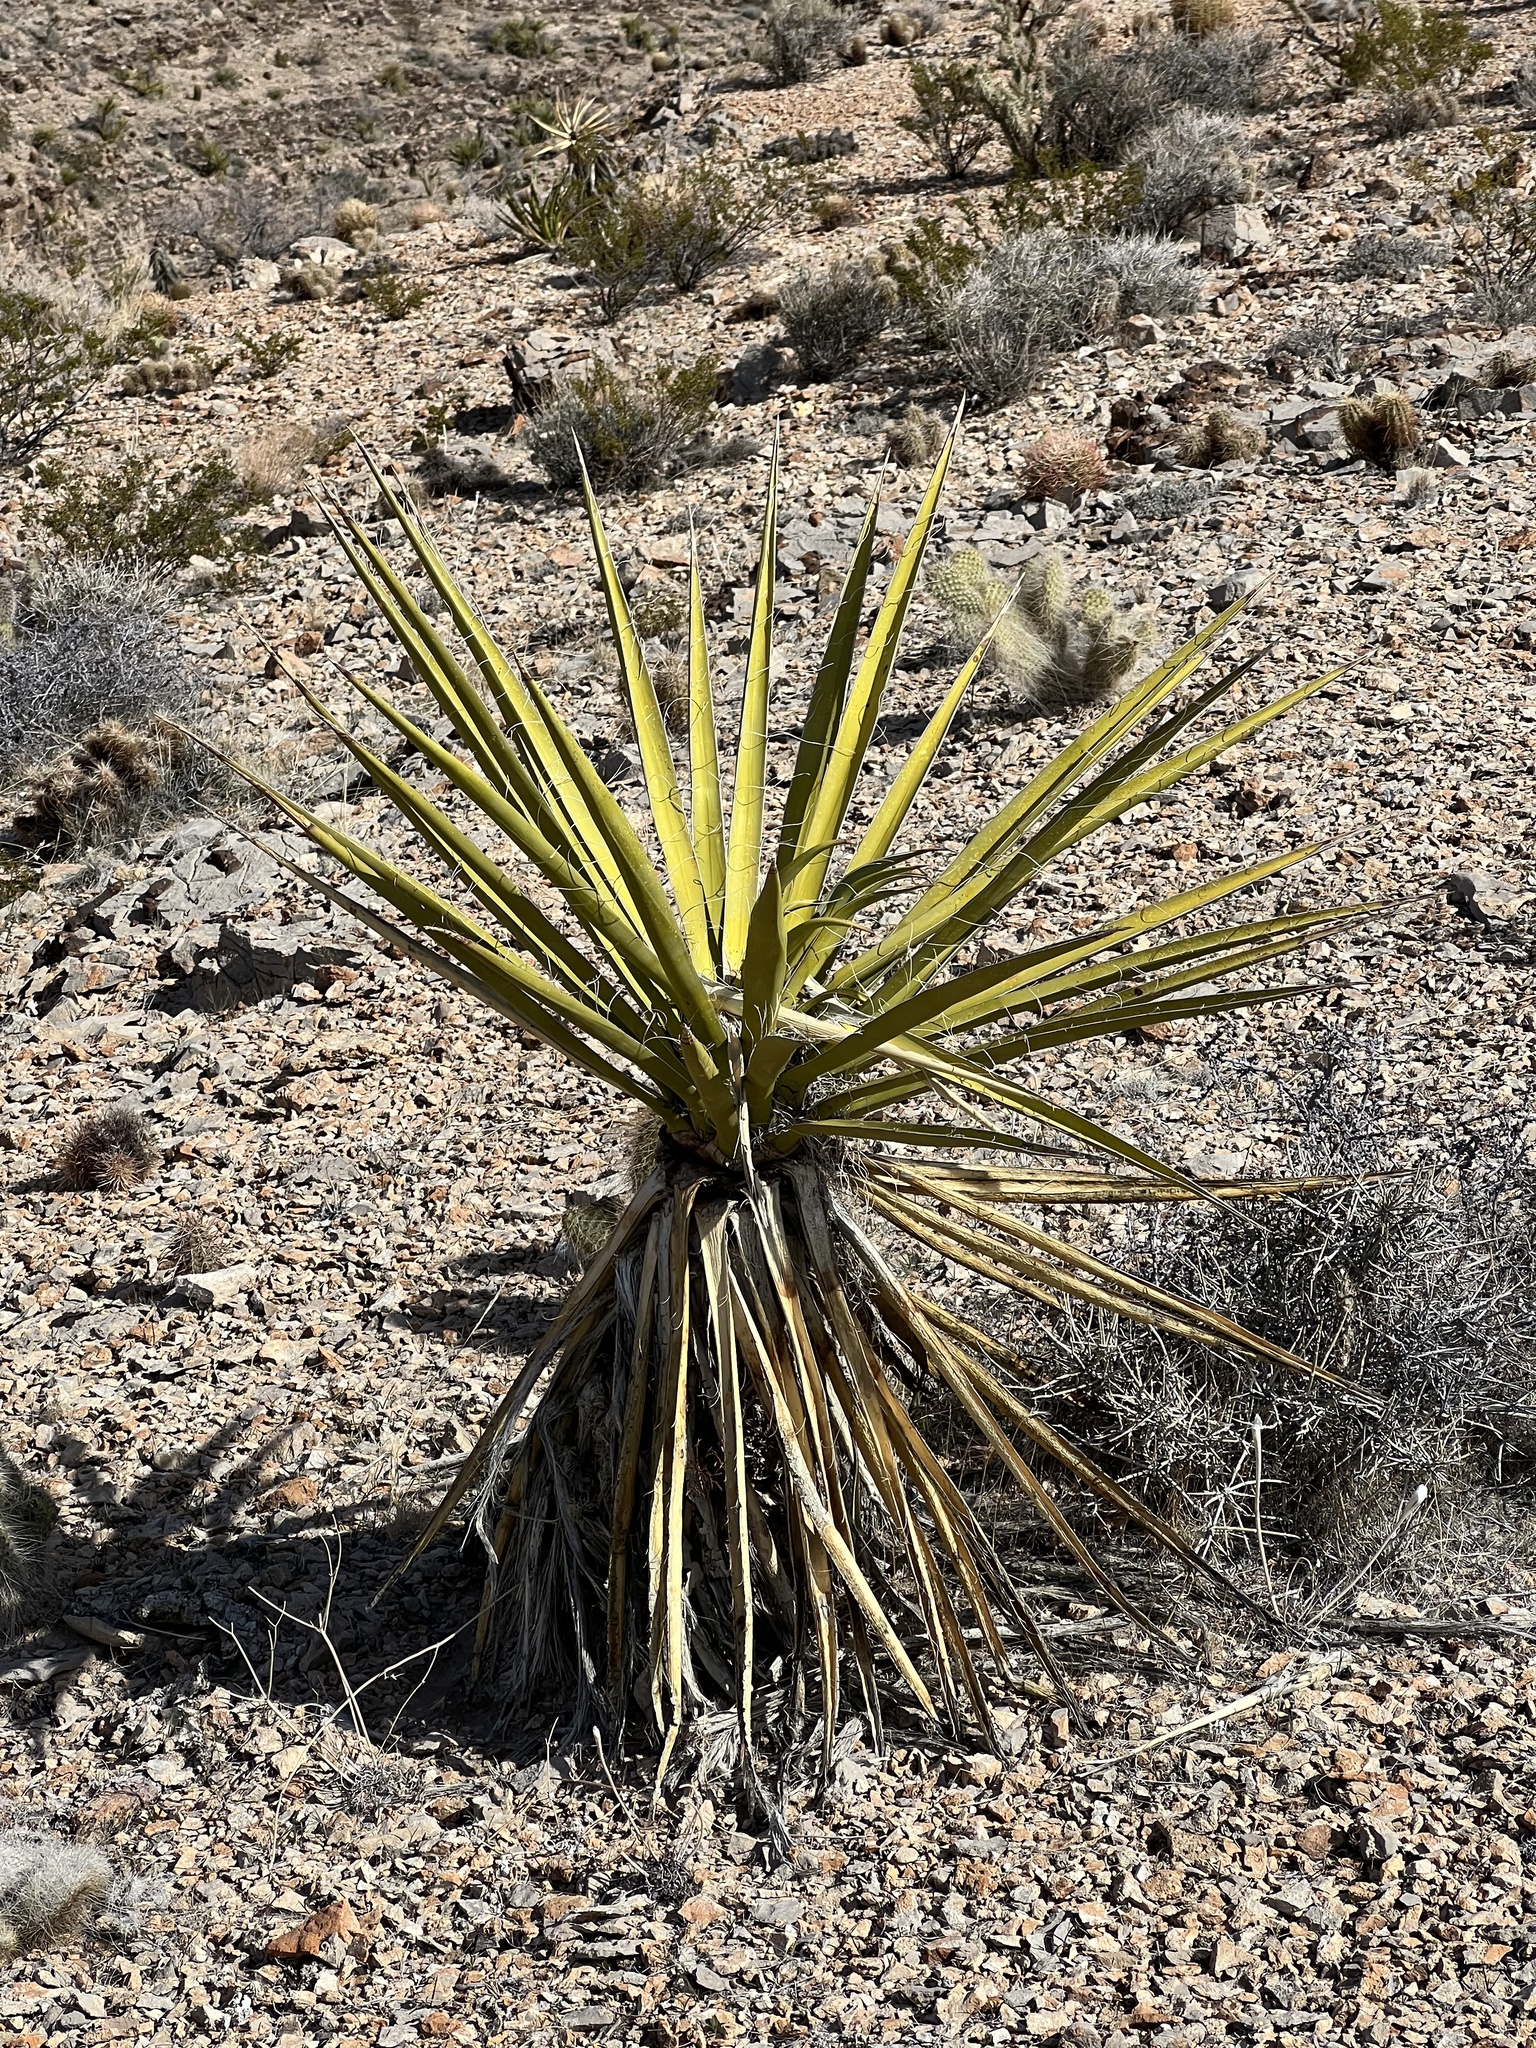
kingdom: Plantae
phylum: Tracheophyta
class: Liliopsida
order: Asparagales
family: Asparagaceae
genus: Yucca
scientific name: Yucca schidigera
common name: Mojave yucca
